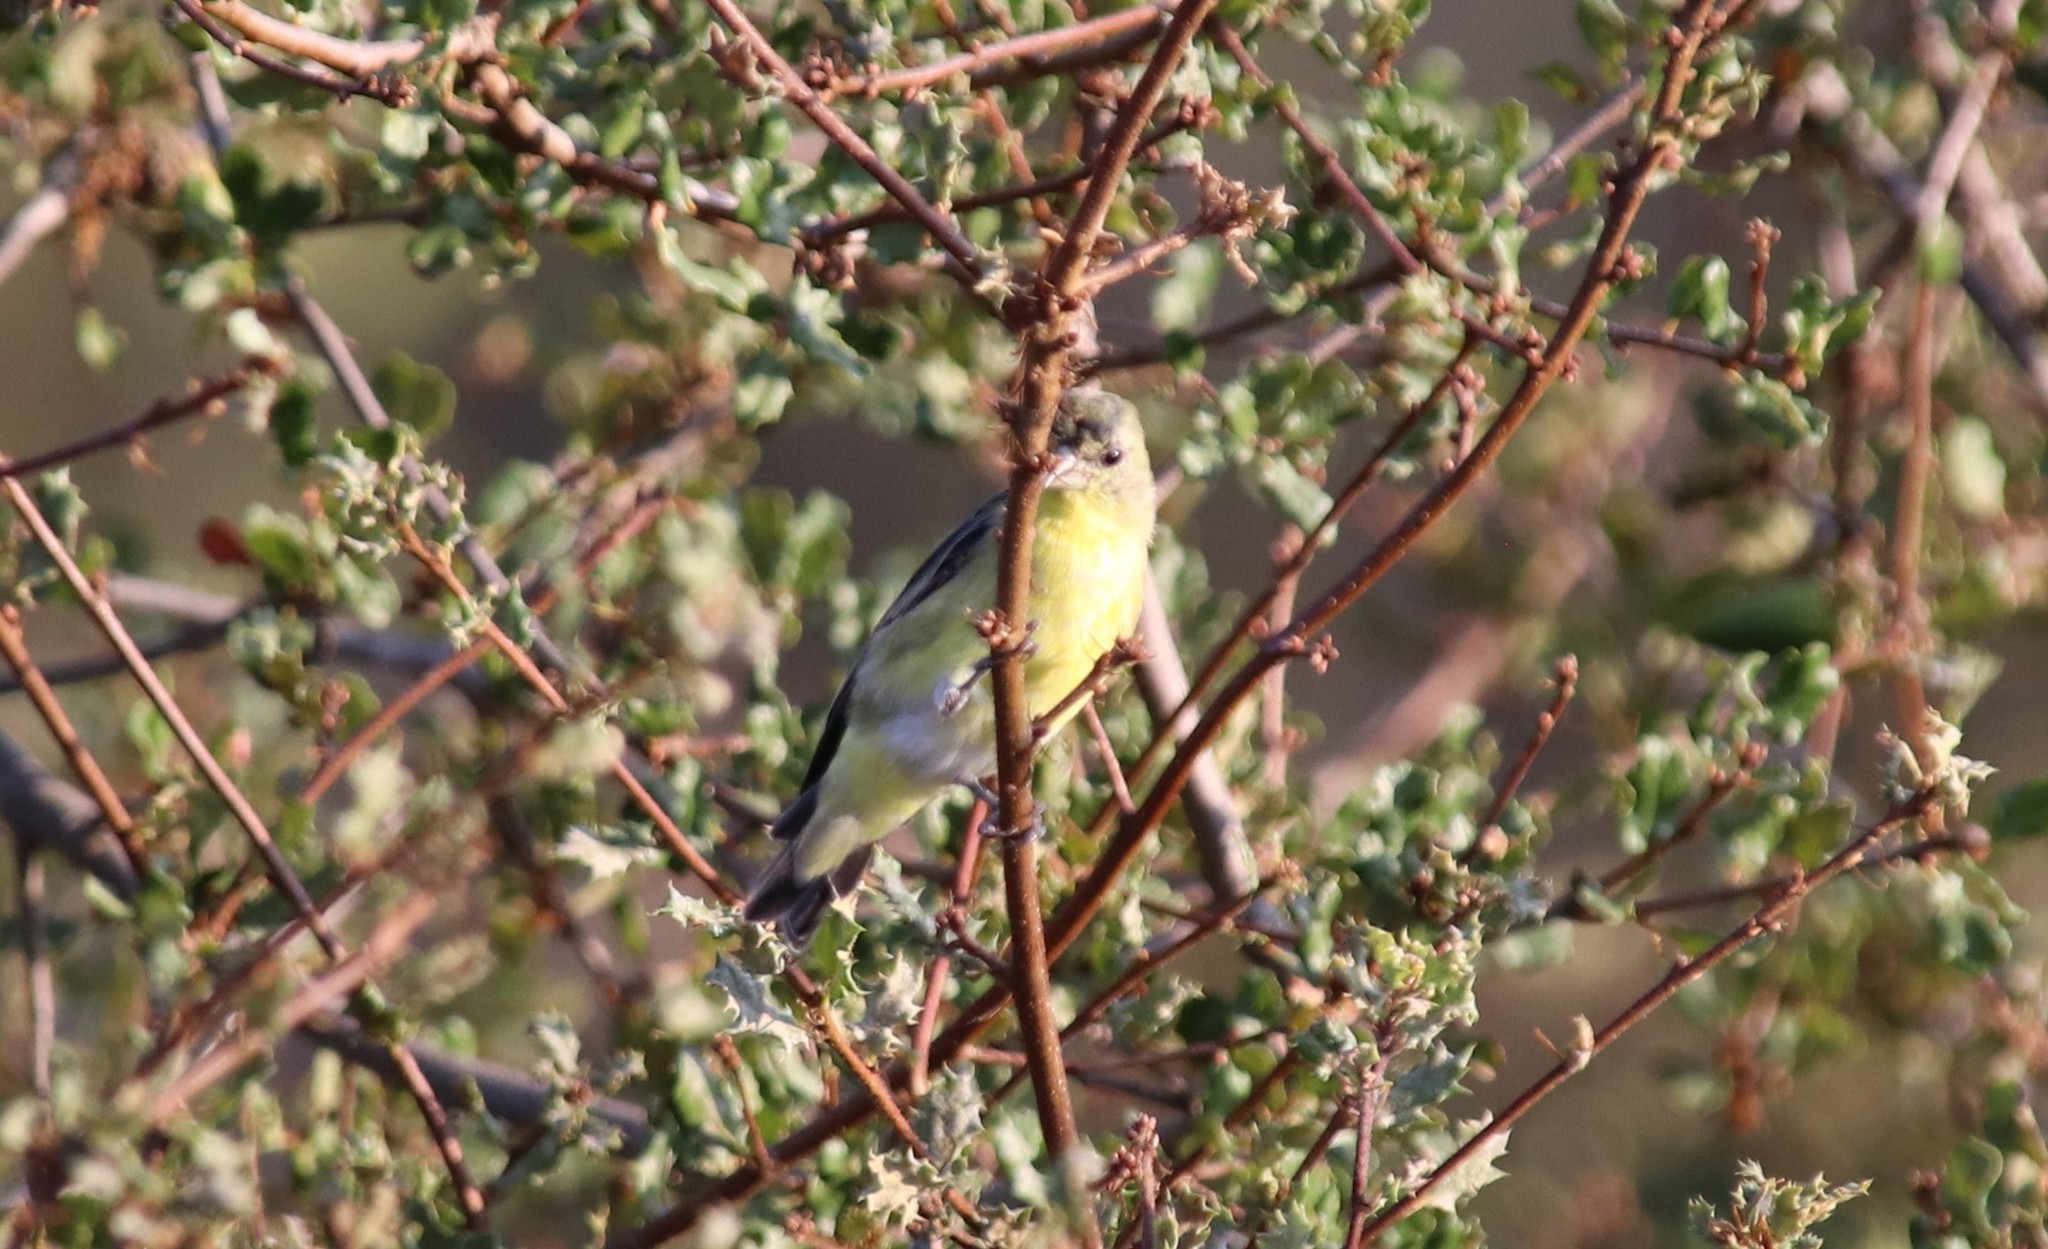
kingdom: Animalia
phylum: Chordata
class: Aves
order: Passeriformes
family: Fringillidae
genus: Spinus
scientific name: Spinus psaltria
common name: Lesser goldfinch
